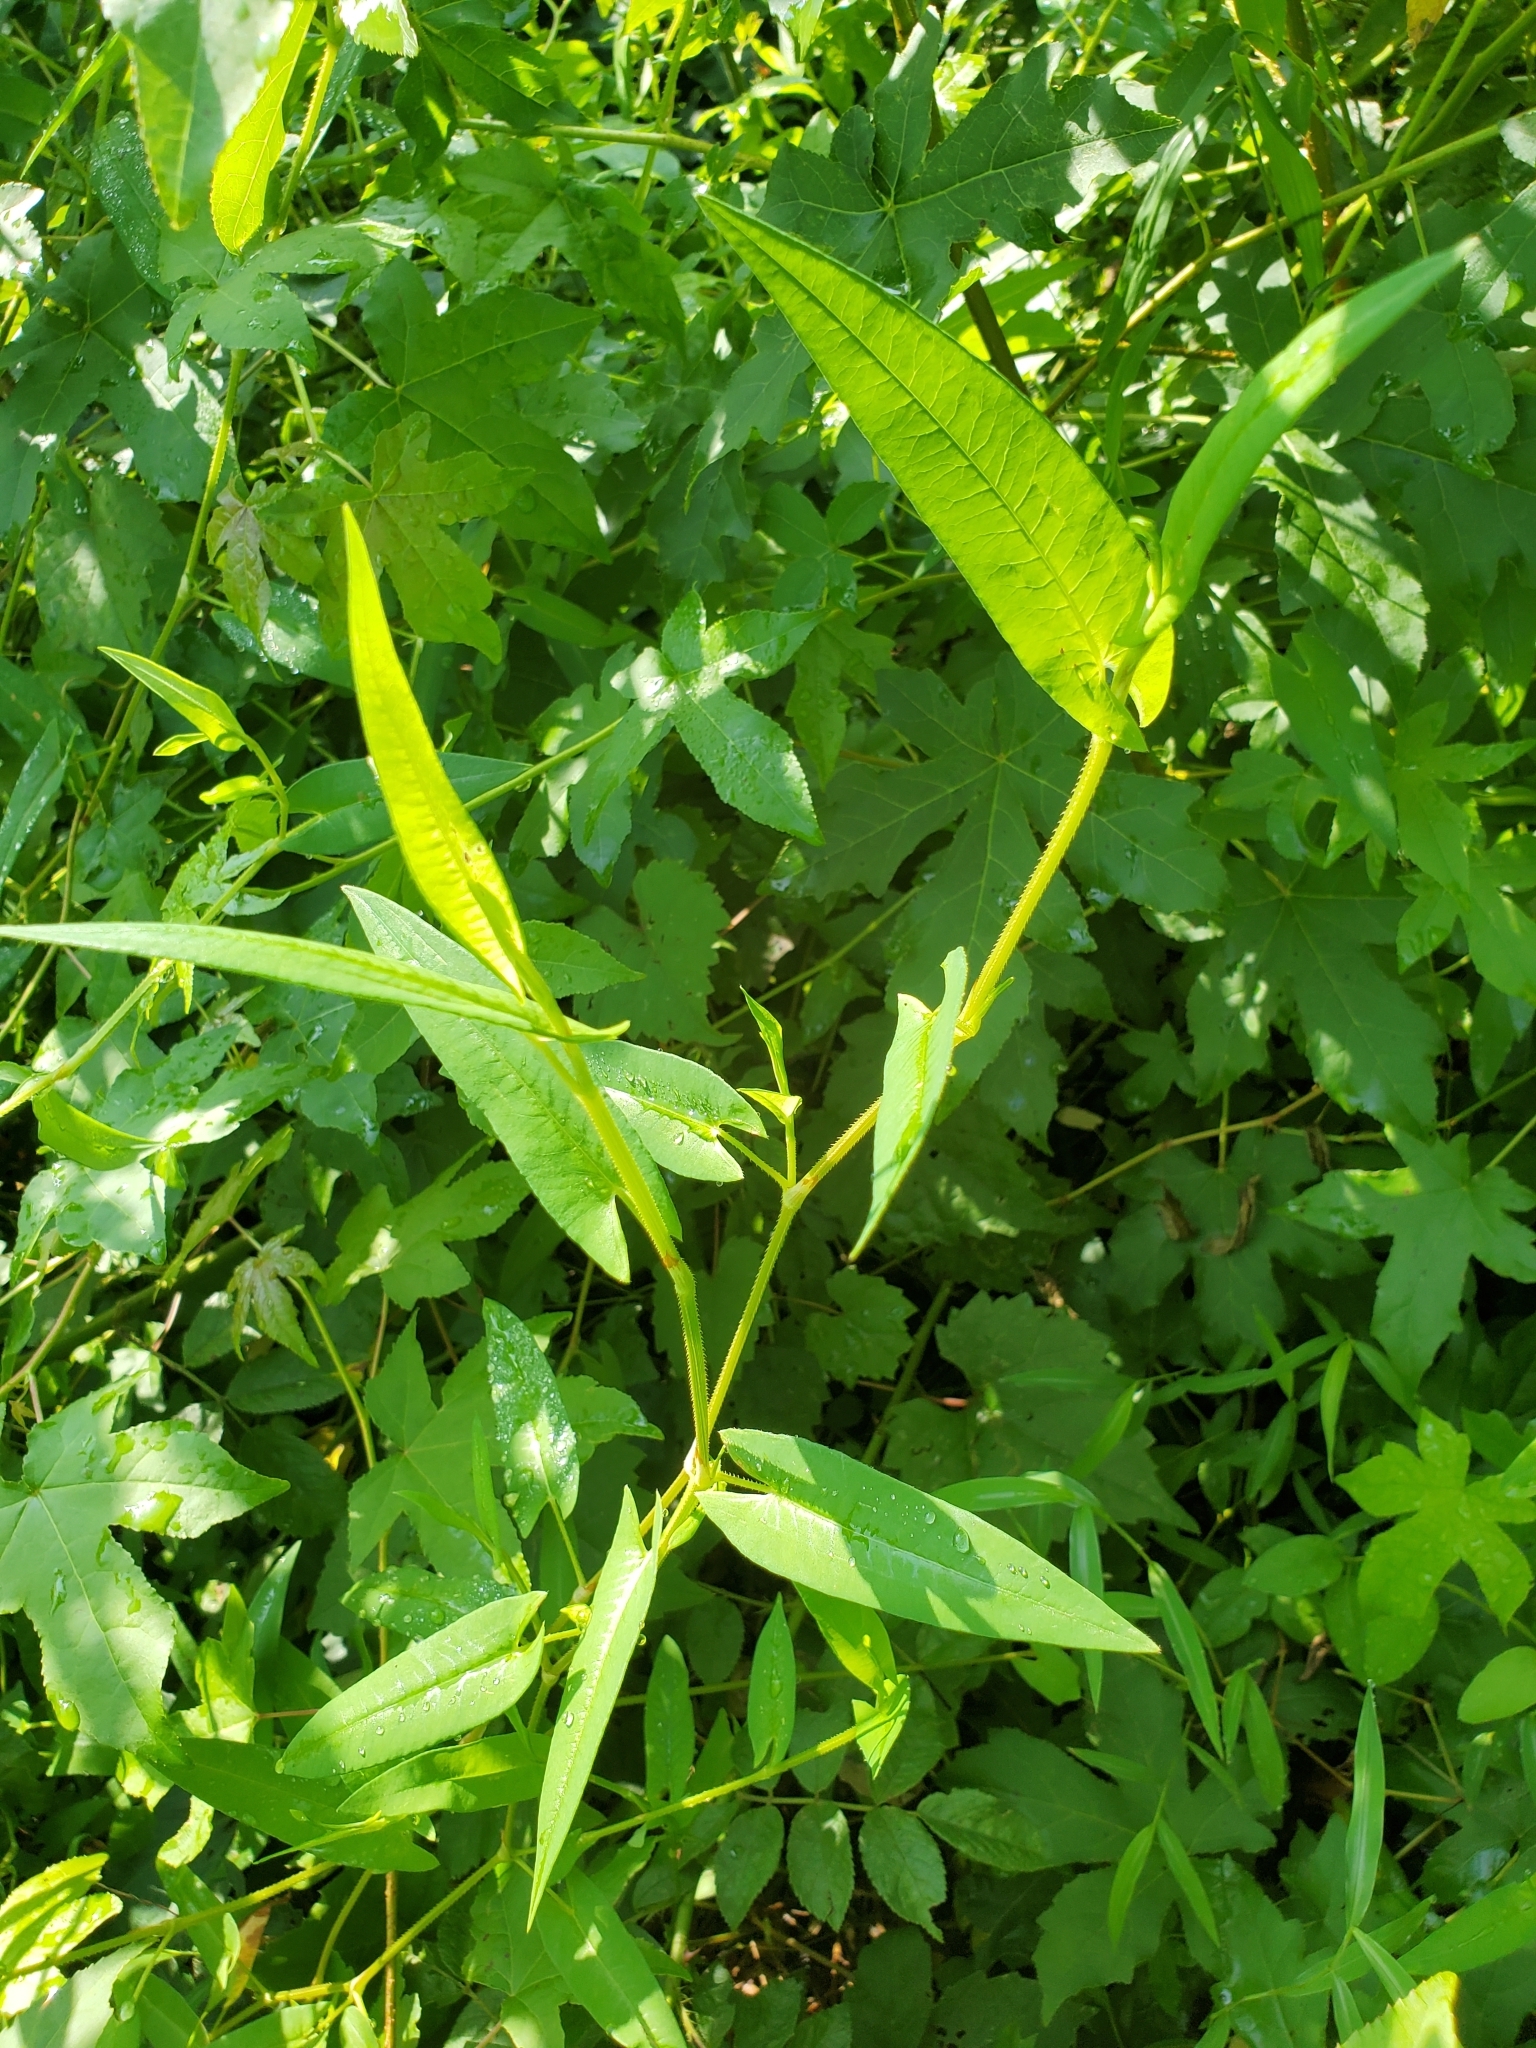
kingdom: Plantae
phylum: Tracheophyta
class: Magnoliopsida
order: Caryophyllales
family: Polygonaceae
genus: Persicaria
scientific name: Persicaria sagittata
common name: American tearthumb
